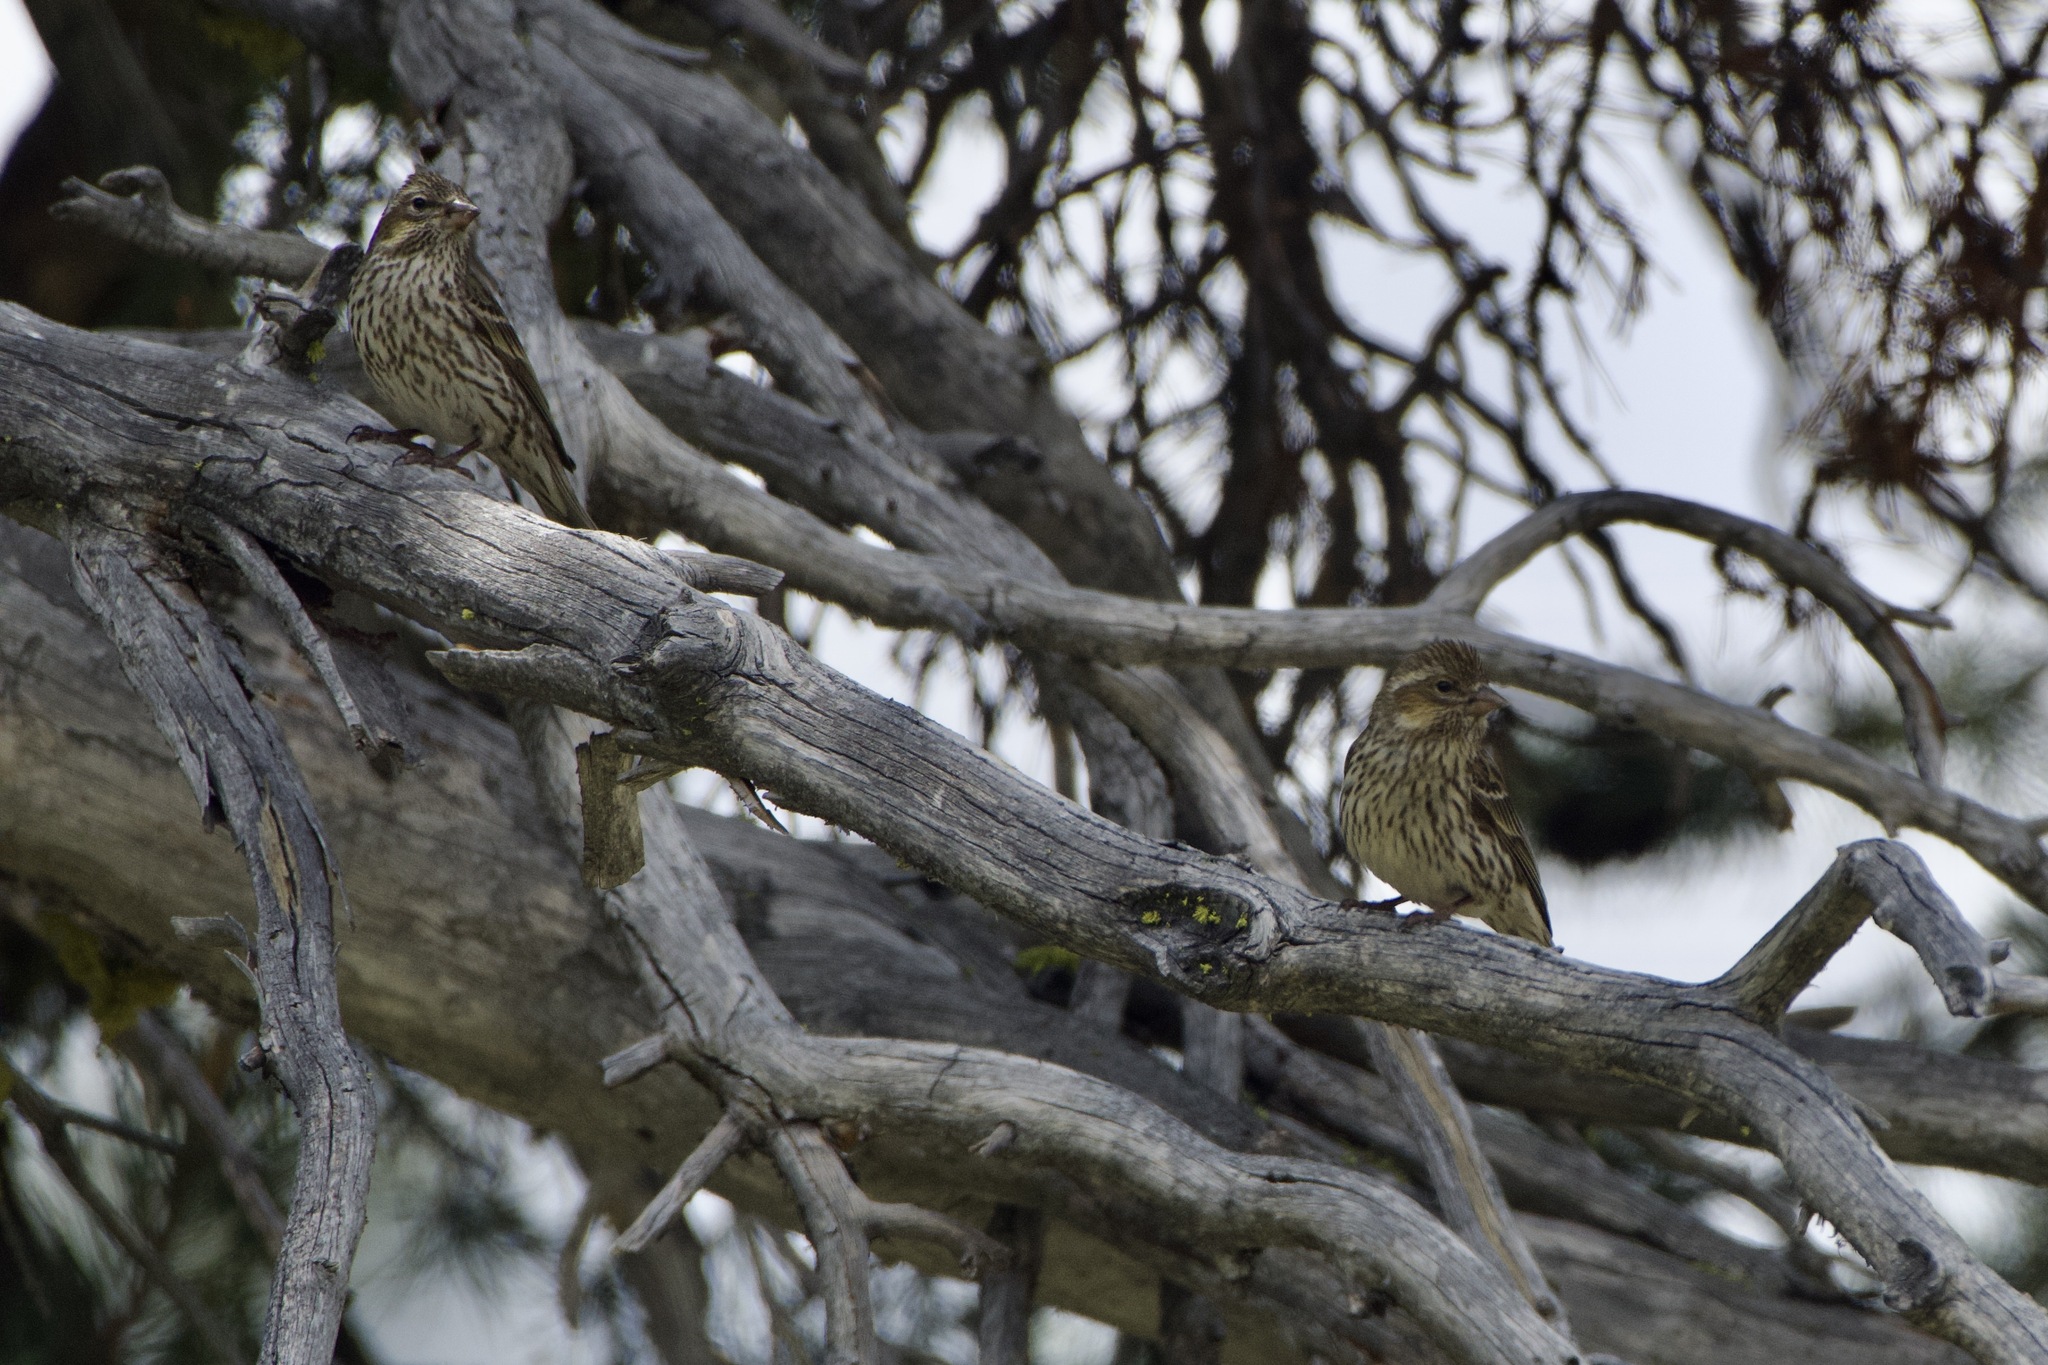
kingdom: Animalia
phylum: Chordata
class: Aves
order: Passeriformes
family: Fringillidae
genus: Haemorhous
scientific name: Haemorhous cassinii
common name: Cassin's finch
